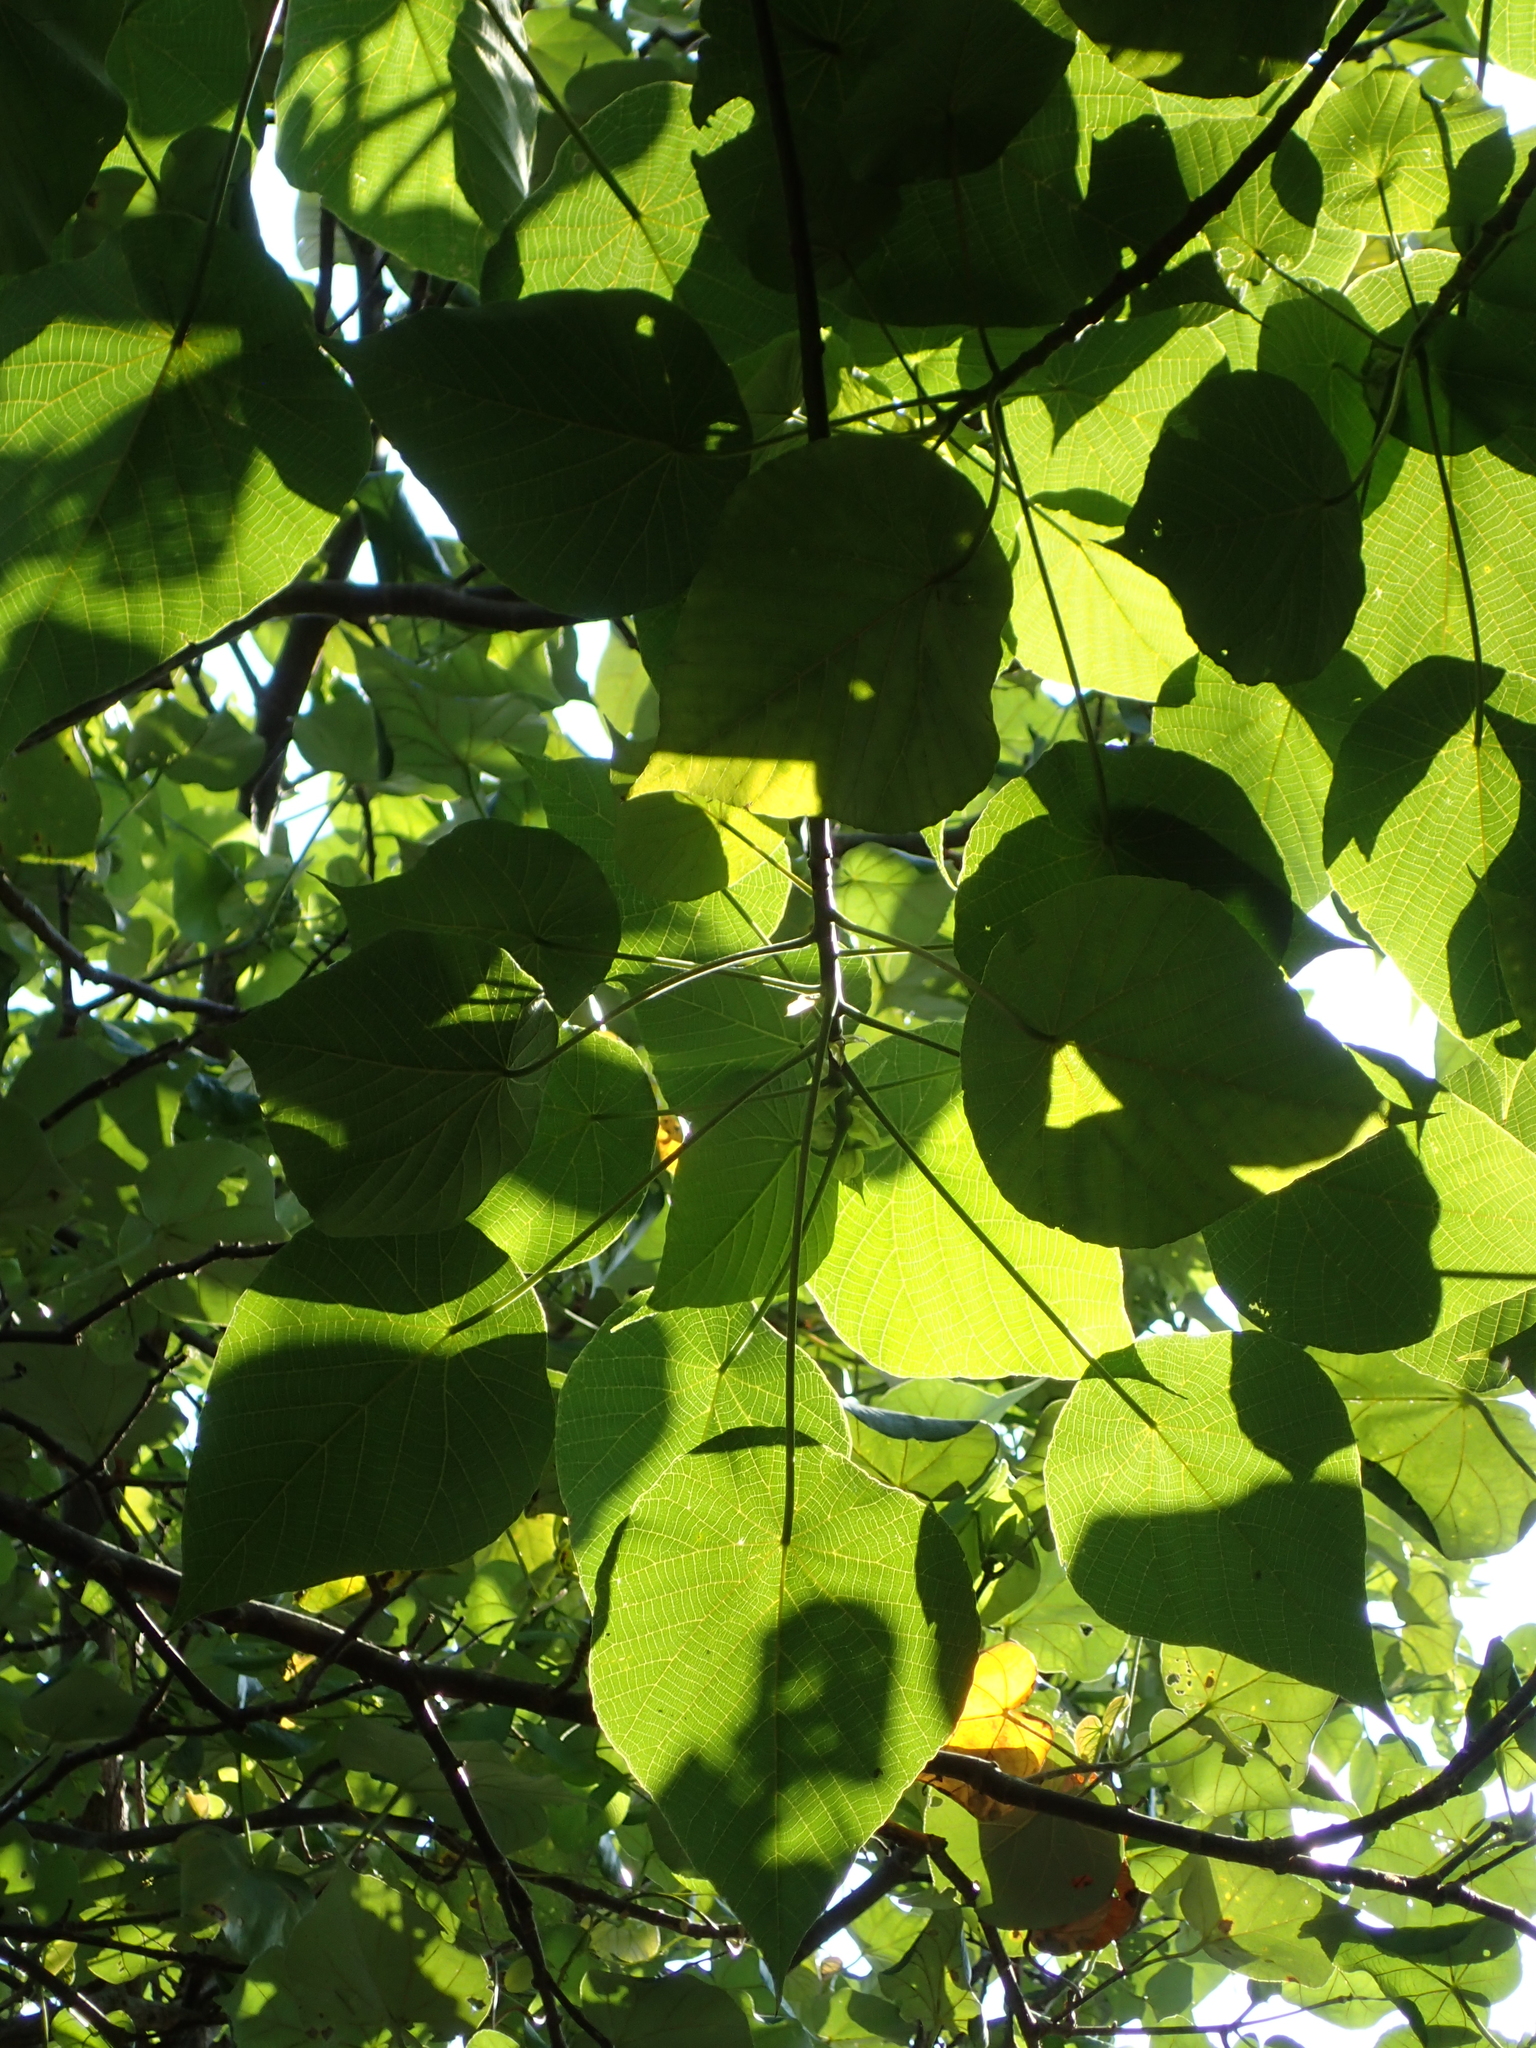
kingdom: Plantae
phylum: Tracheophyta
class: Magnoliopsida
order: Malpighiales
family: Euphorbiaceae
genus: Macaranga
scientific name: Macaranga tanarius
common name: Parasol leaf tree
